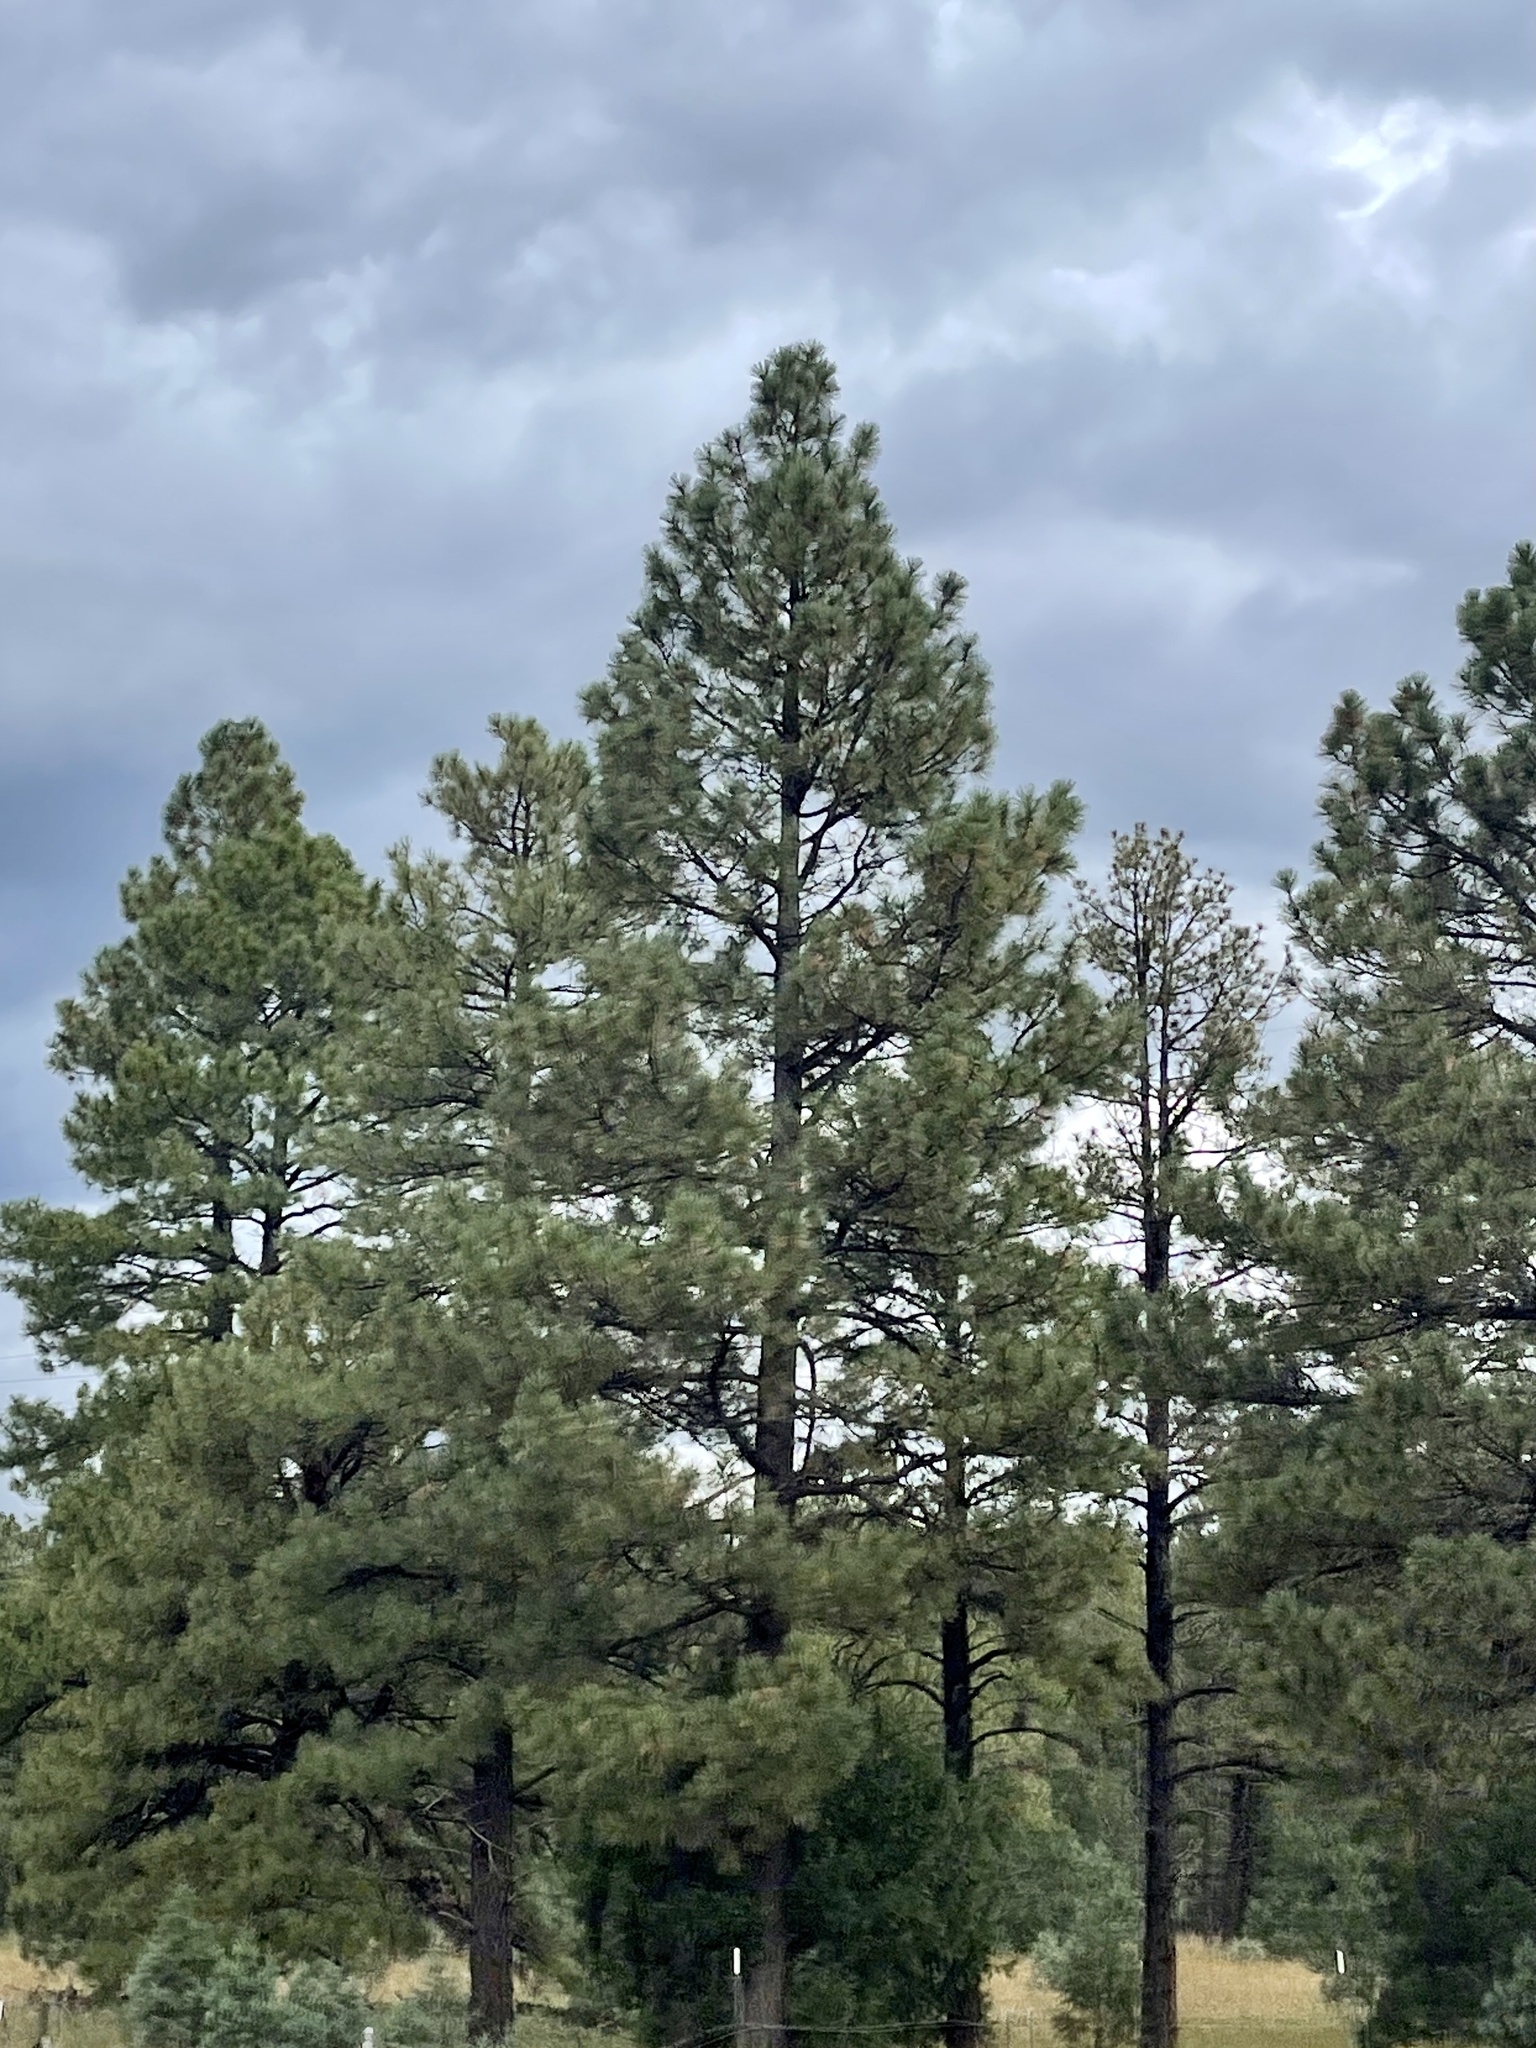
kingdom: Plantae
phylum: Tracheophyta
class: Pinopsida
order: Pinales
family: Pinaceae
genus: Pinus
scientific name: Pinus ponderosa
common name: Western yellow-pine
